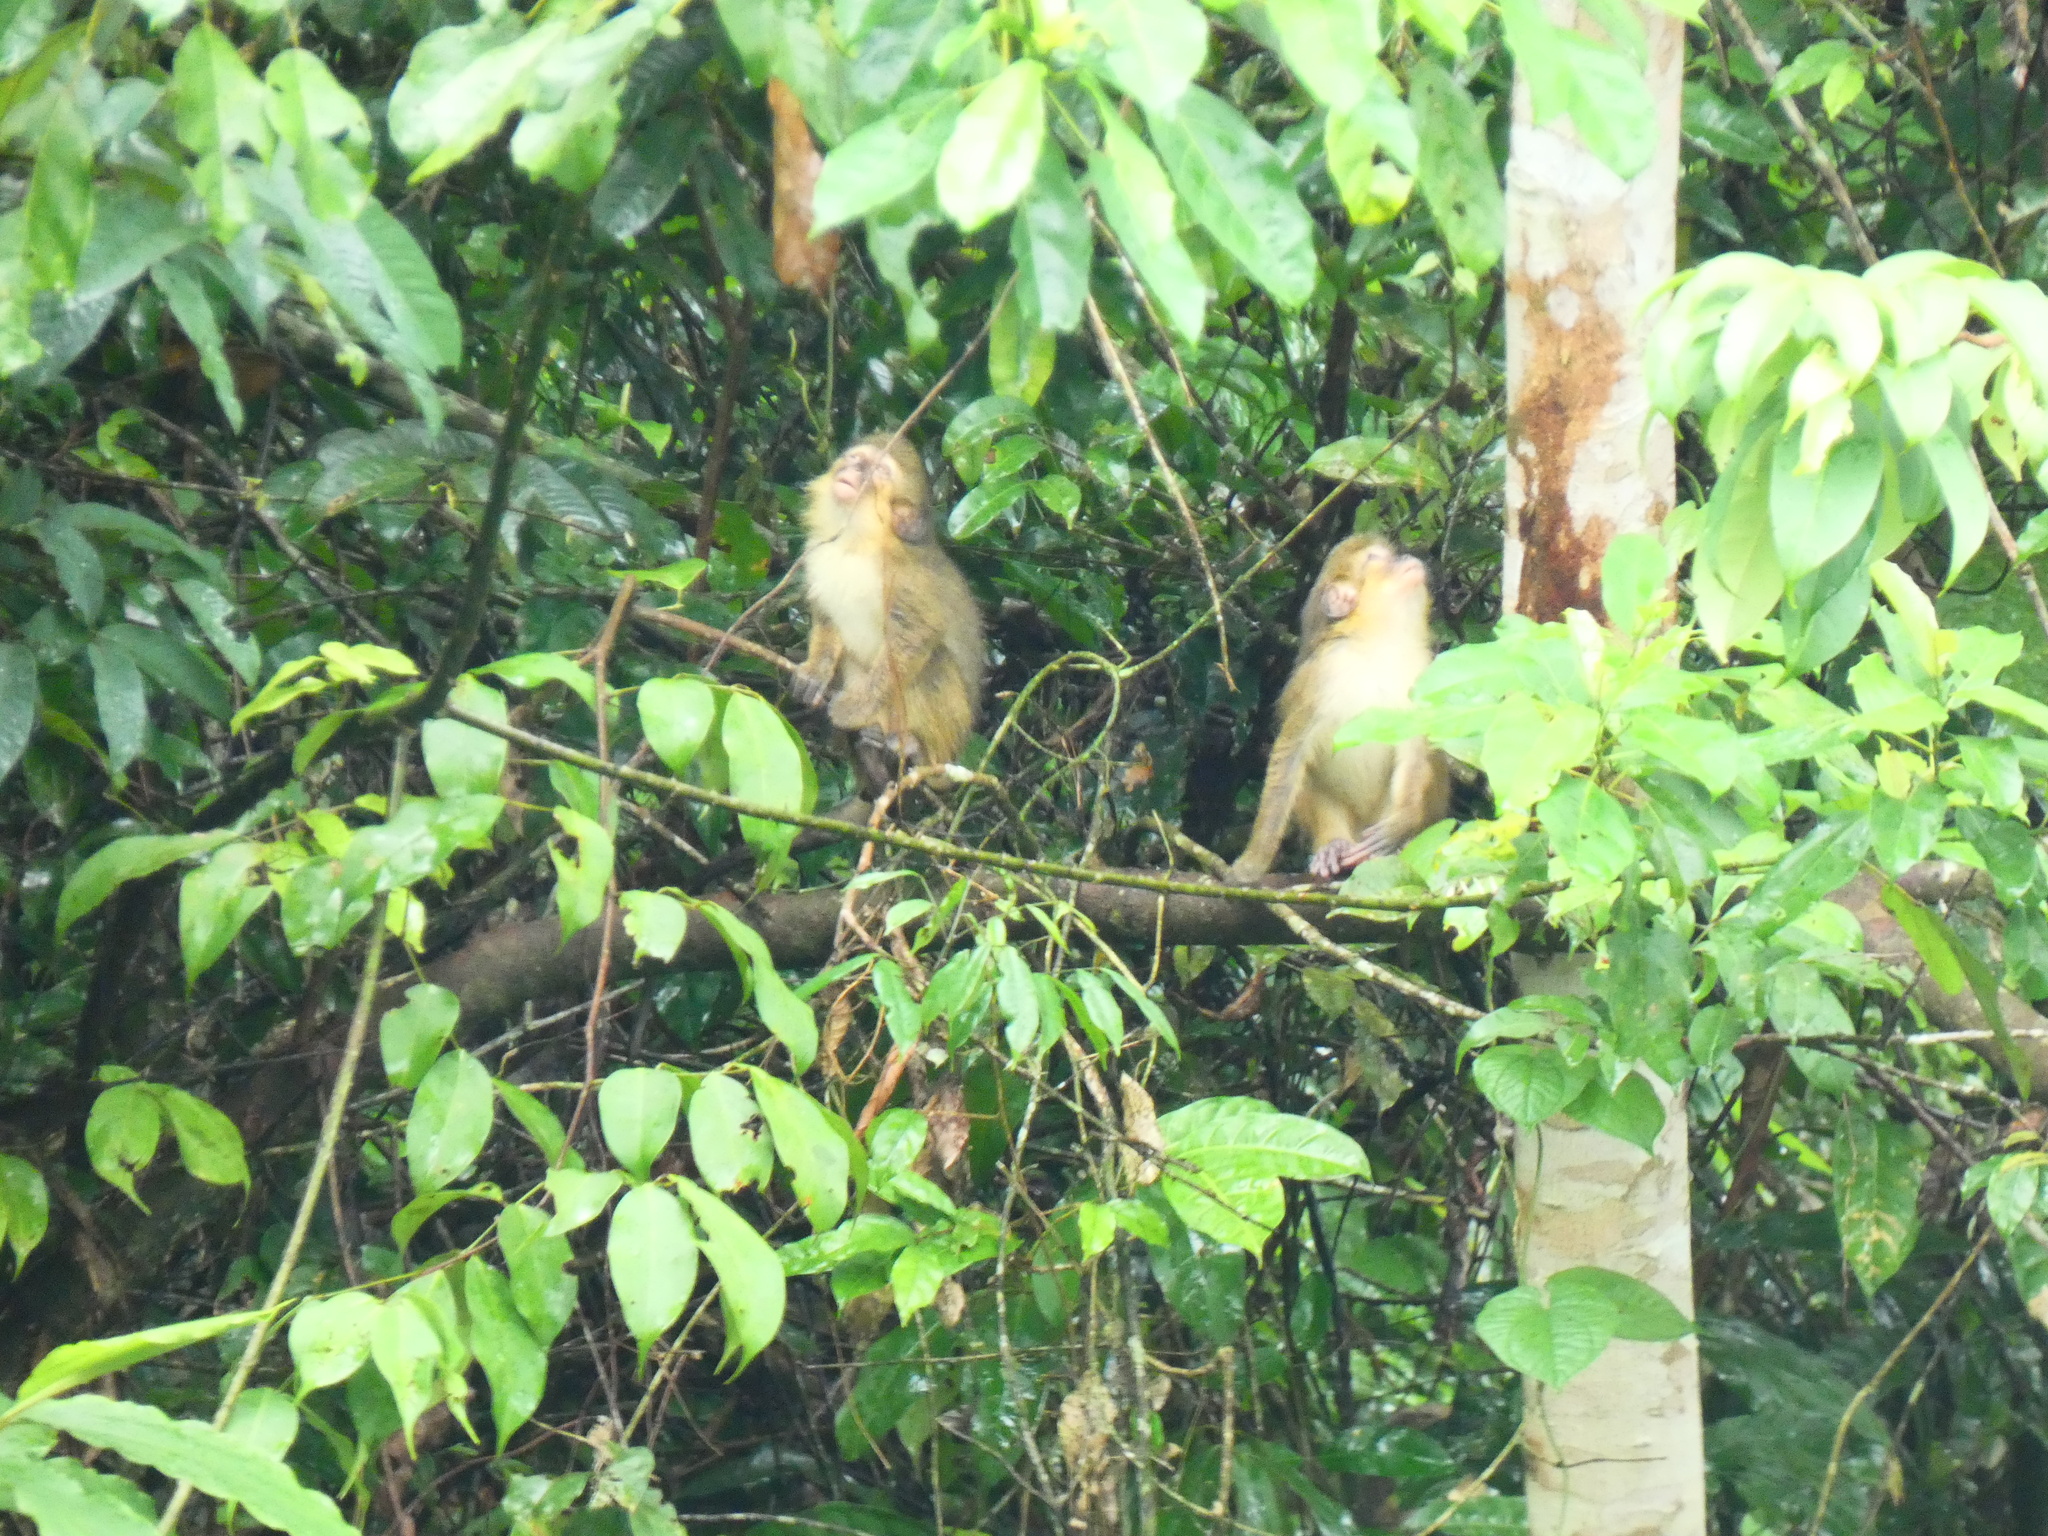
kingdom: Animalia
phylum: Chordata
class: Mammalia
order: Primates
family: Cercopithecidae
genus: Miopithecus
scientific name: Miopithecus ogouensis
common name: Gabon talapoin
